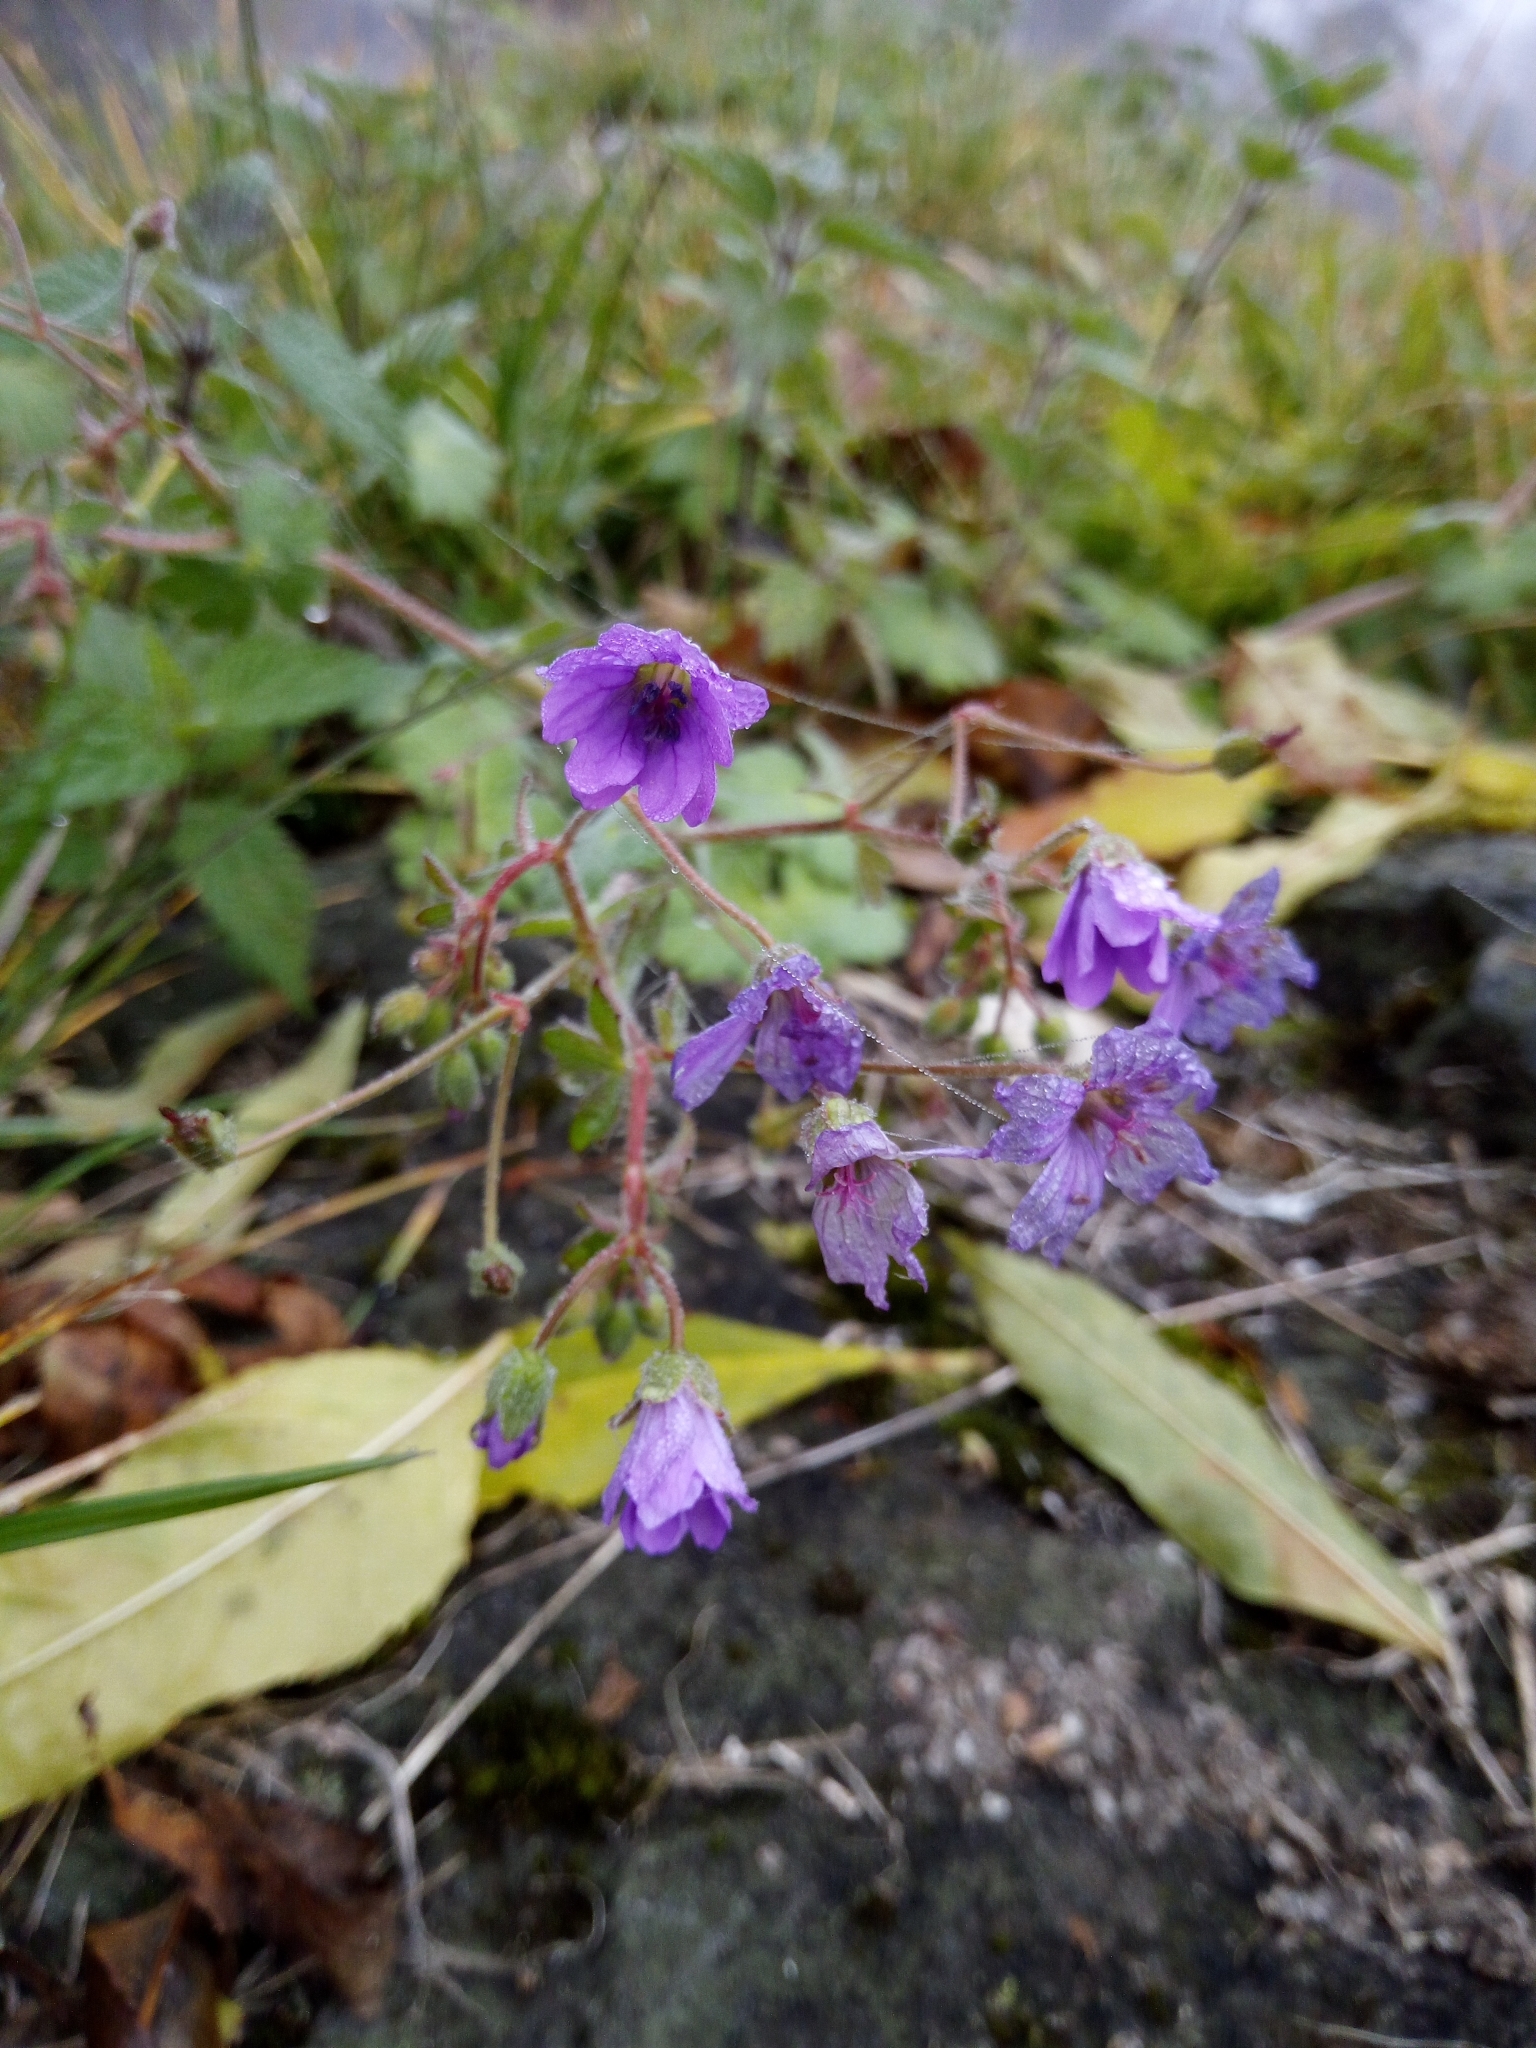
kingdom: Plantae
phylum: Tracheophyta
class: Magnoliopsida
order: Geraniales
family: Geraniaceae
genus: Geranium
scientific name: Geranium pyrenaicum
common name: Hedgerow crane's-bill
